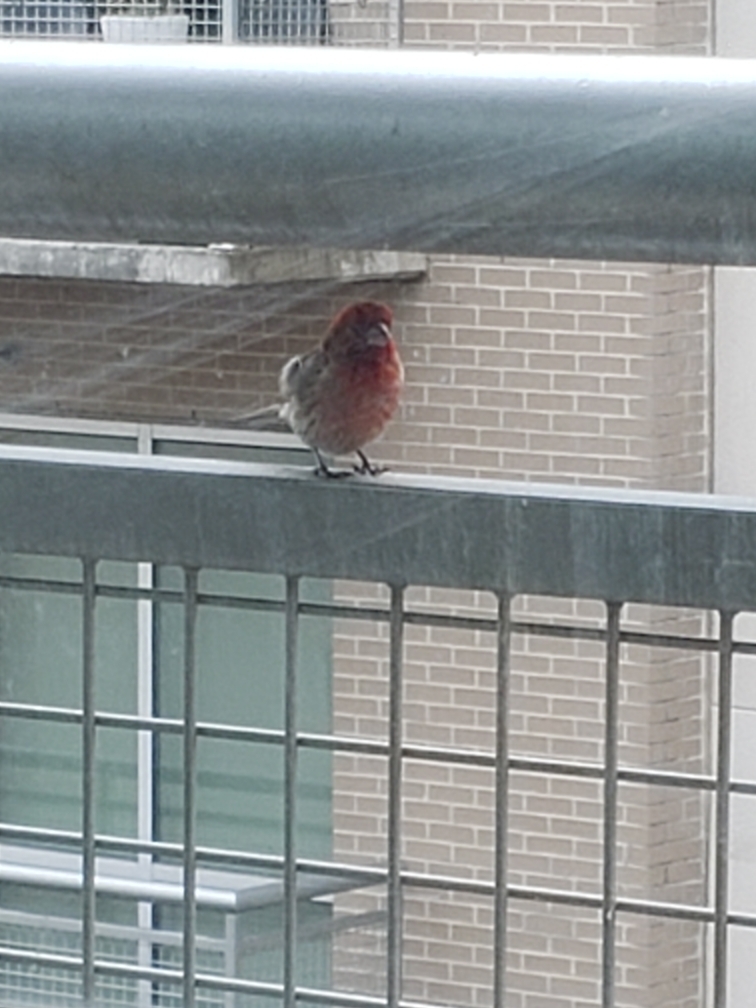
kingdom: Animalia
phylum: Chordata
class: Aves
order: Passeriformes
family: Fringillidae
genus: Haemorhous
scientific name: Haemorhous mexicanus
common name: House finch
